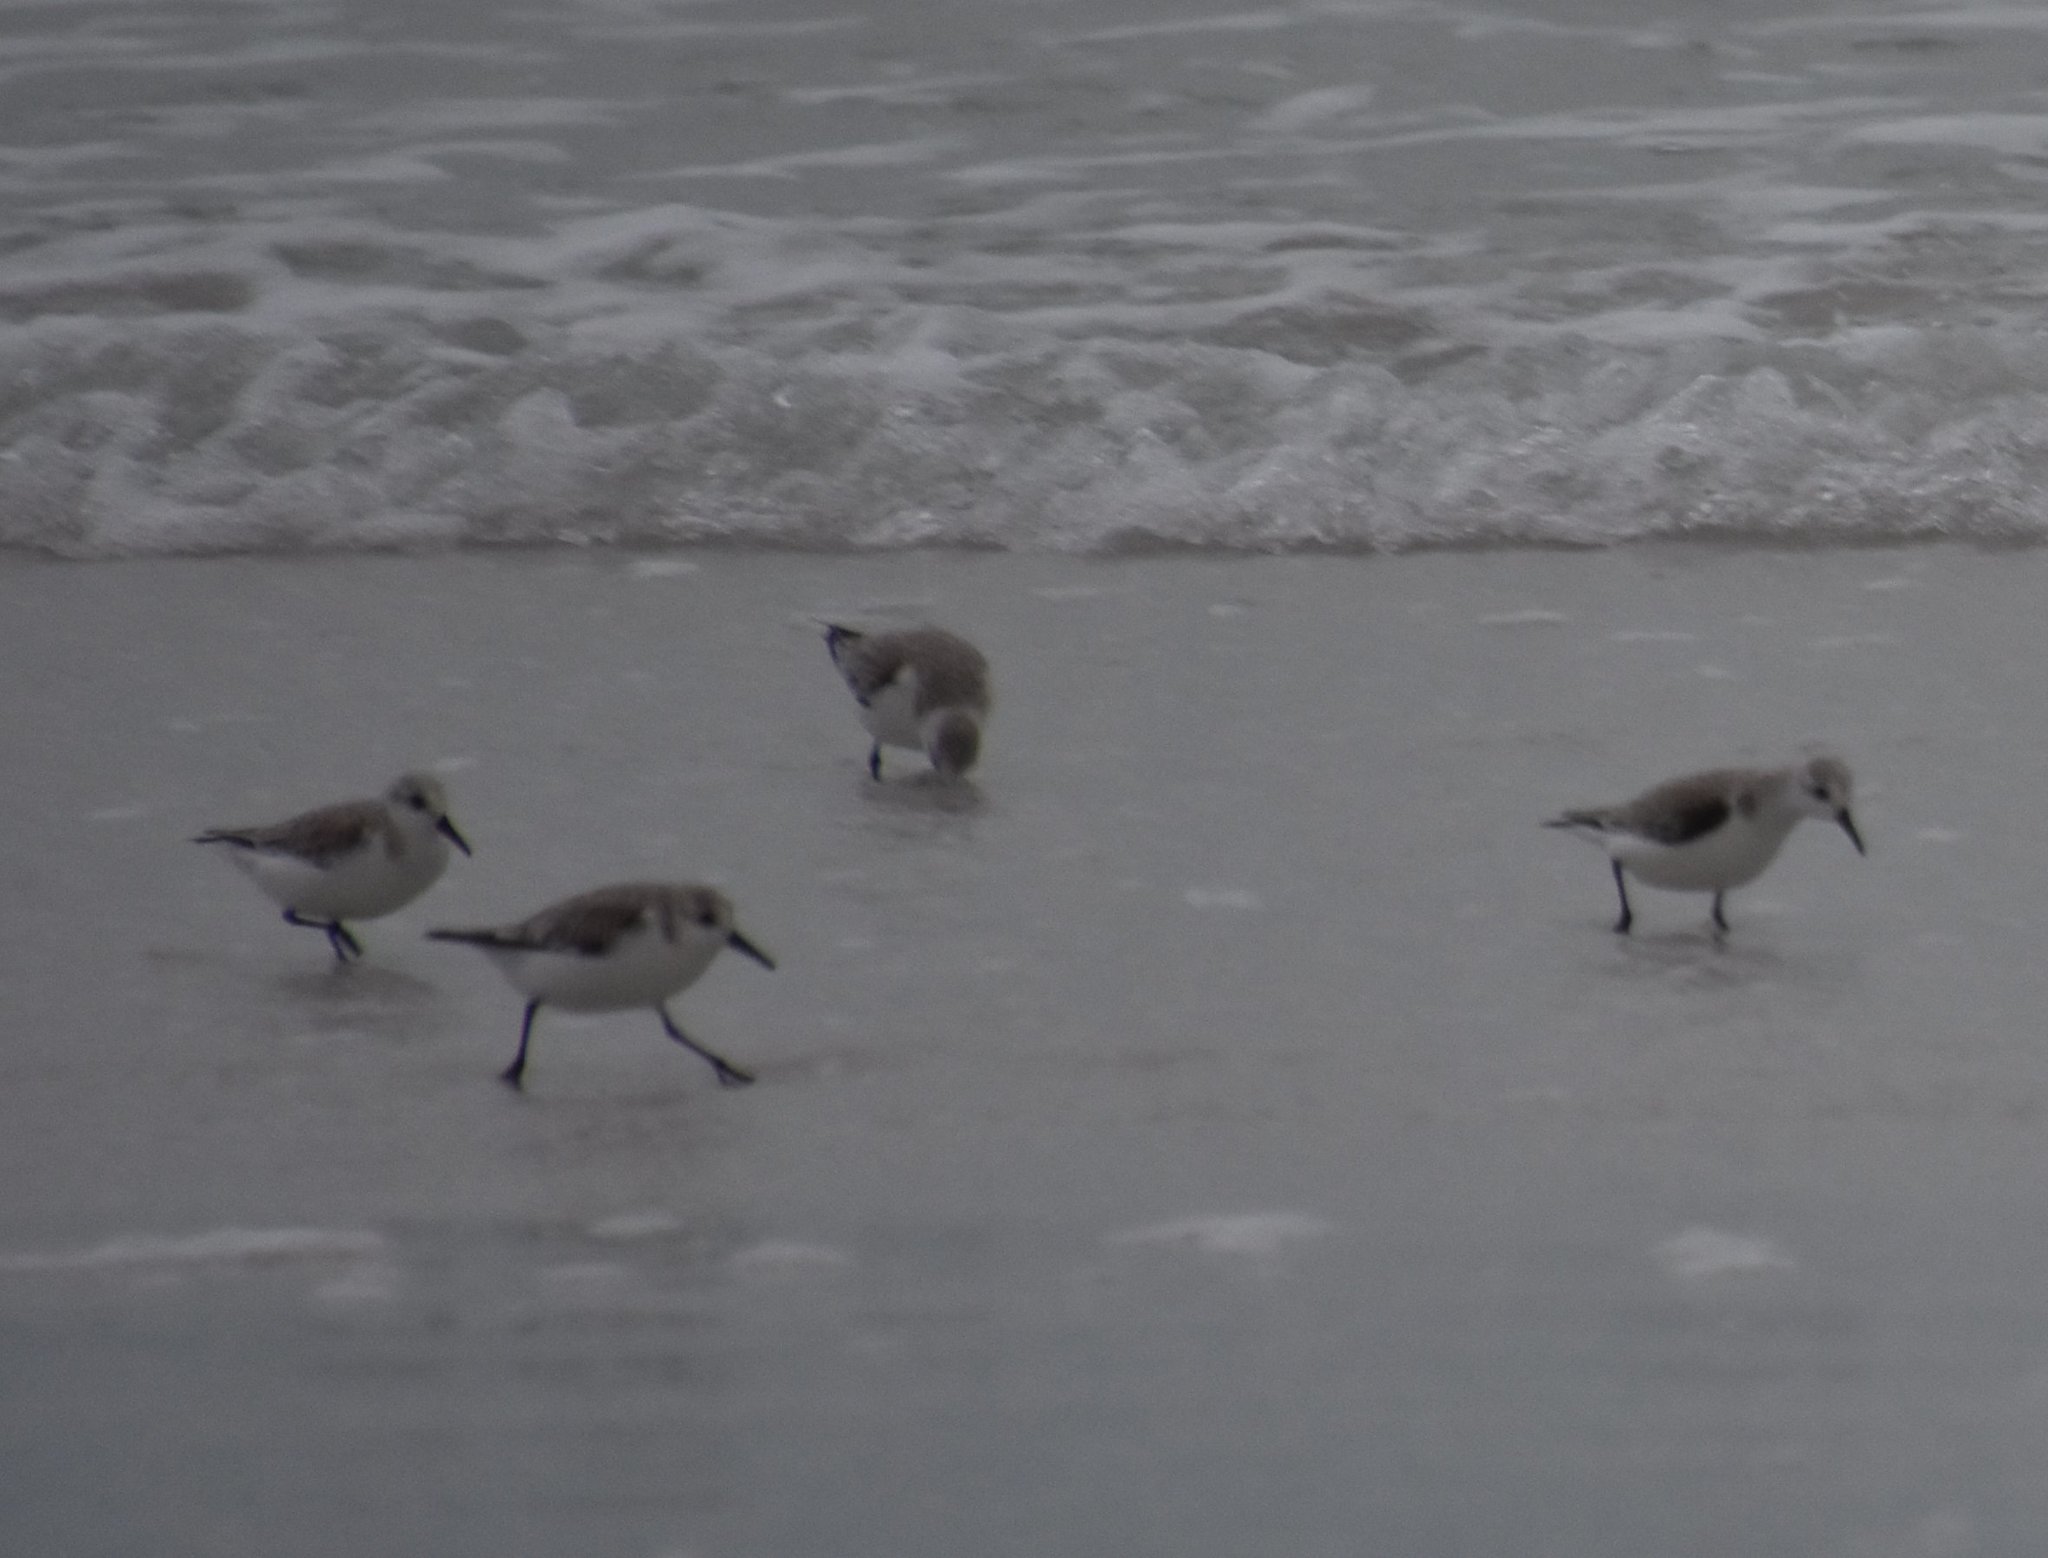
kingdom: Animalia
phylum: Chordata
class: Aves
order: Charadriiformes
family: Scolopacidae
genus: Calidris
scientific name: Calidris alba
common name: Sanderling
